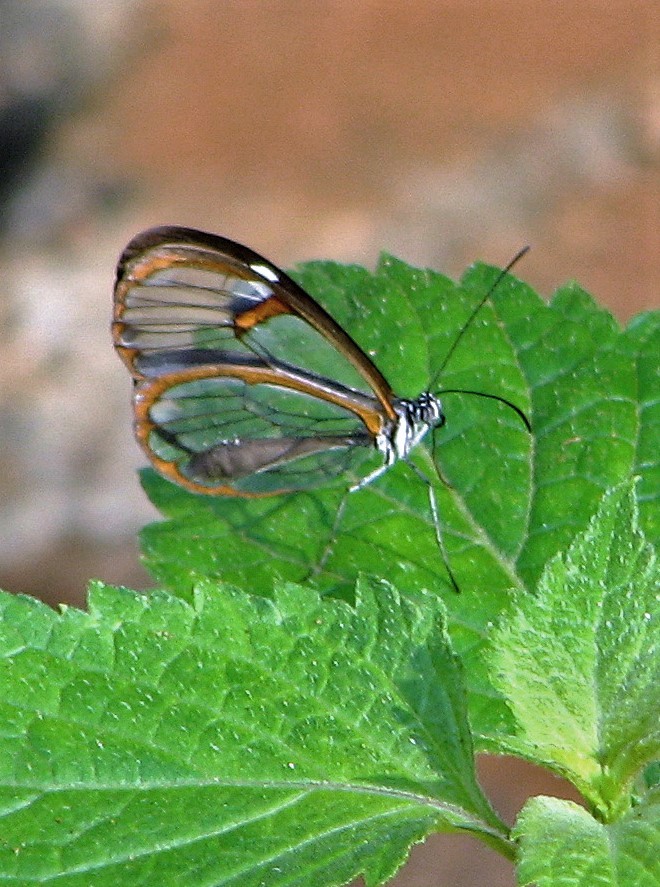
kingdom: Animalia
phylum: Arthropoda
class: Insecta
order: Lepidoptera
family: Nymphalidae
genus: Pseudoscada
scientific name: Pseudoscada erruca
